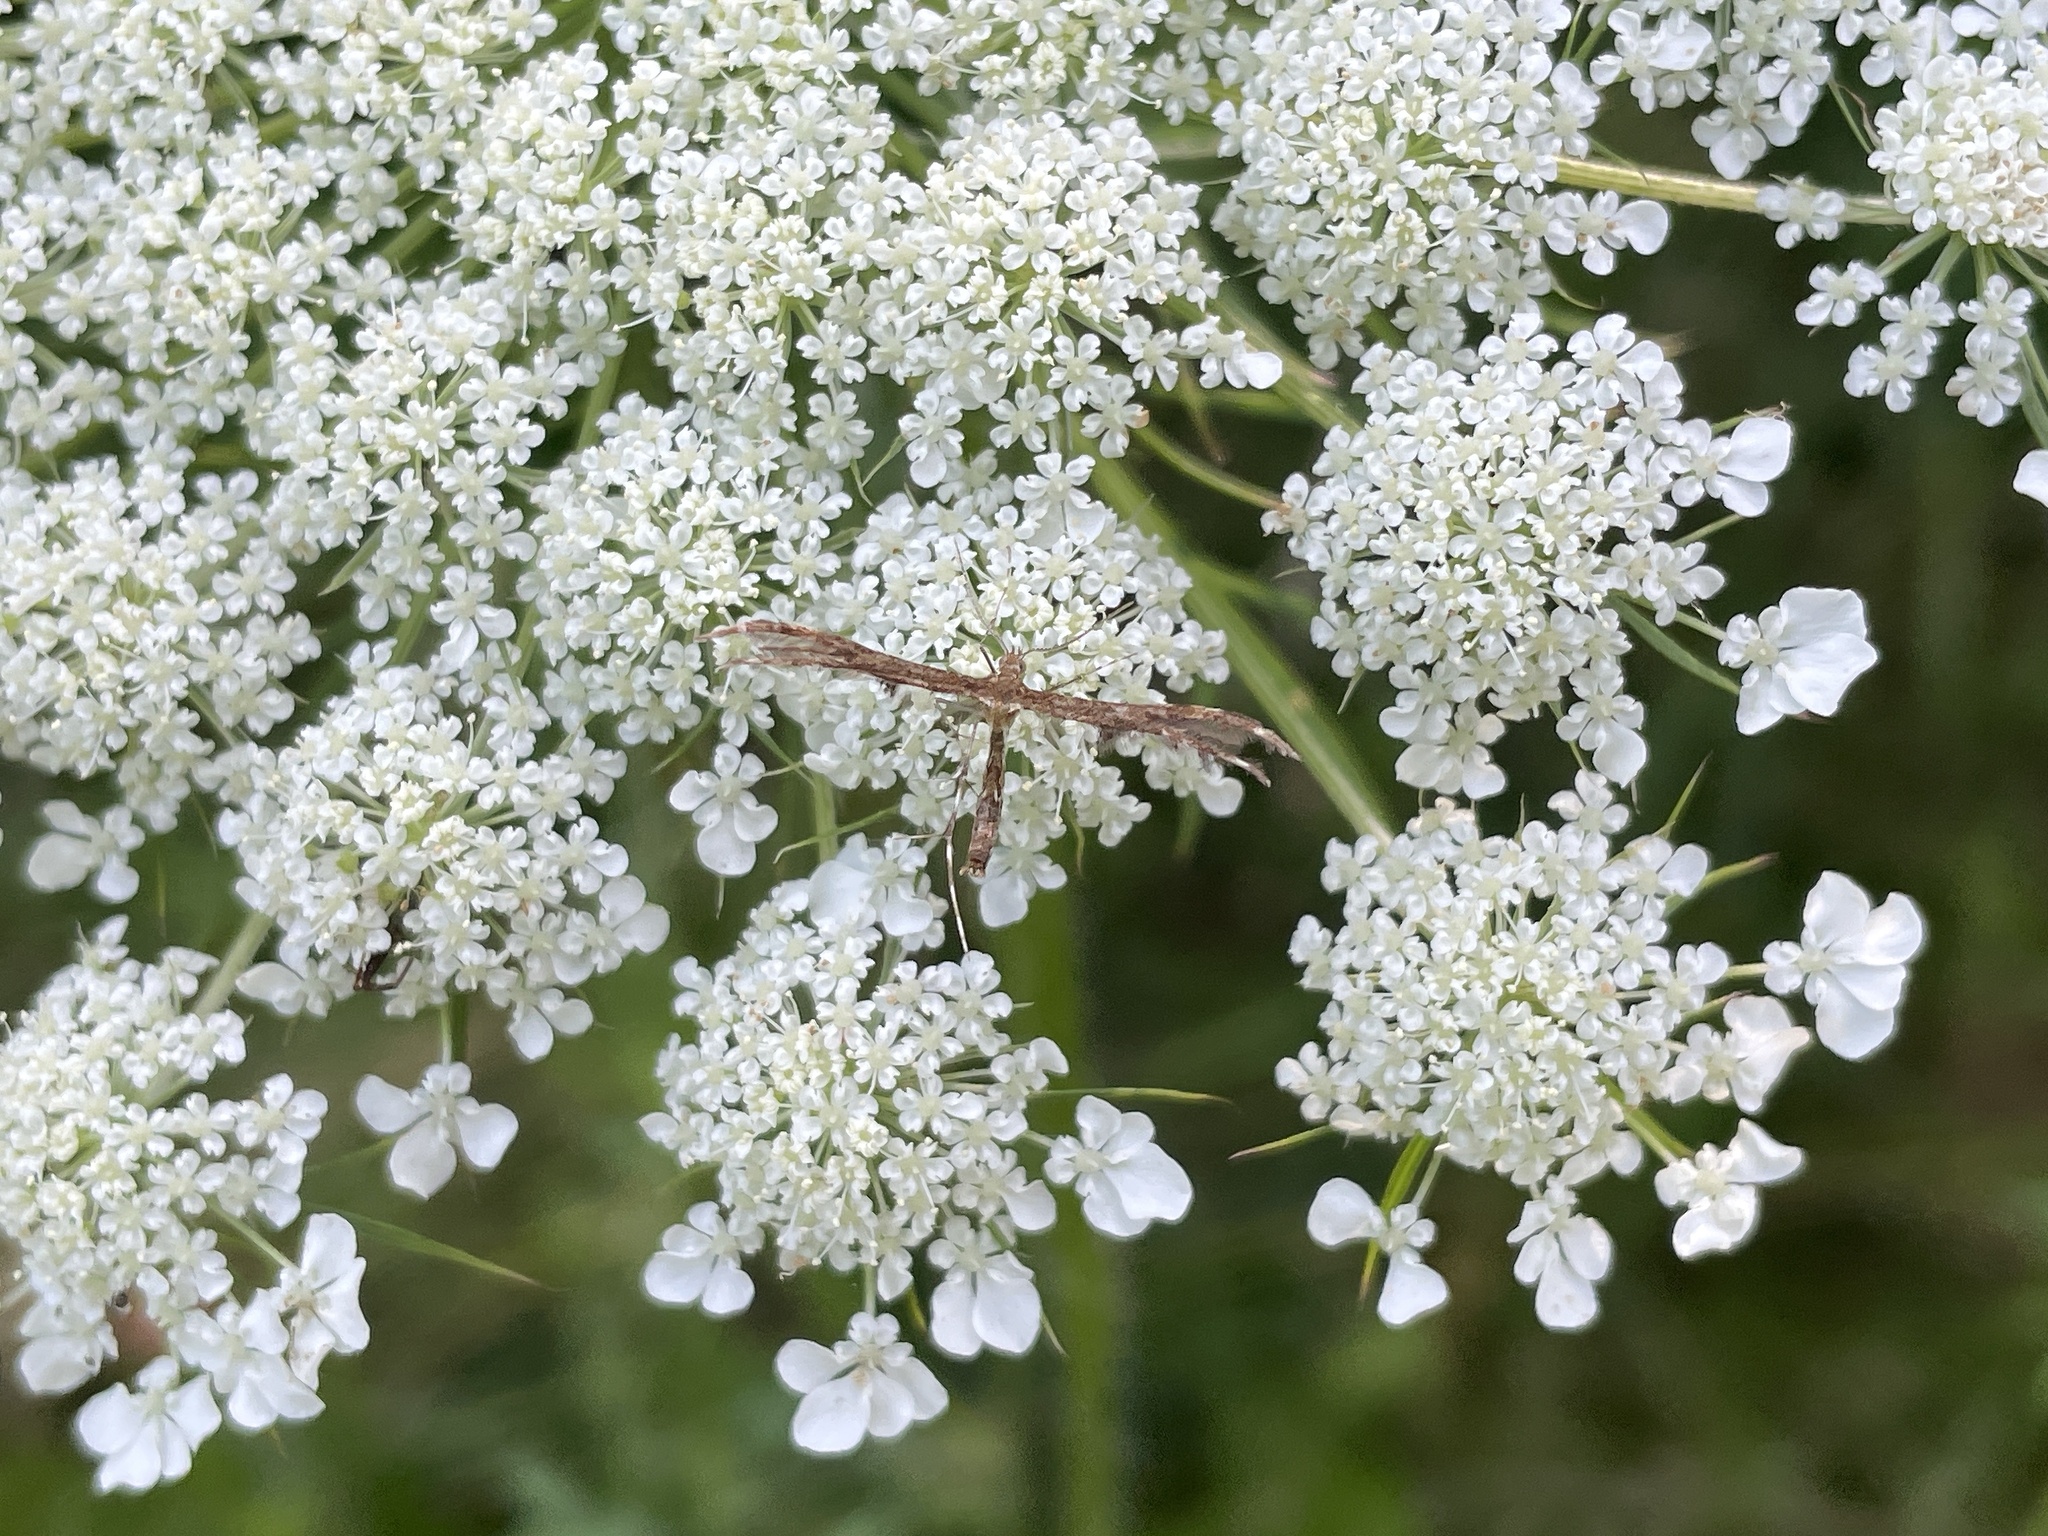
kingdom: Animalia
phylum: Arthropoda
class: Insecta
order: Lepidoptera
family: Pterophoridae
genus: Dejongia
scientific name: Dejongia lobidactylus
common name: Lobed plume moth
